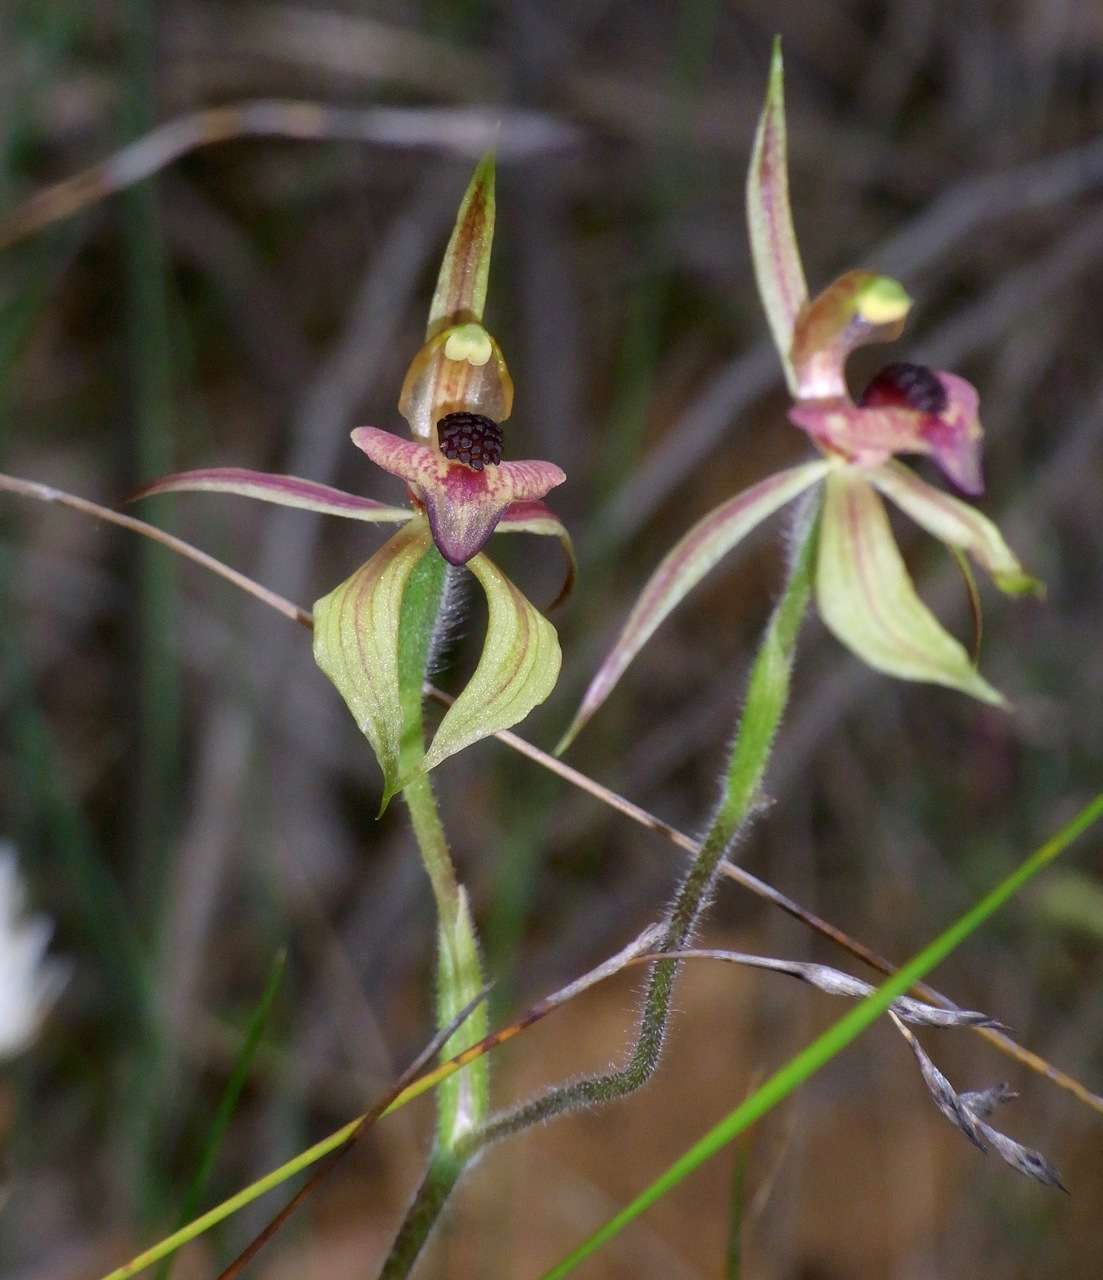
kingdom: Plantae
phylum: Tracheophyta
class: Liliopsida
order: Asparagales
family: Orchidaceae
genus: Caladenia
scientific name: Caladenia cardiochila
